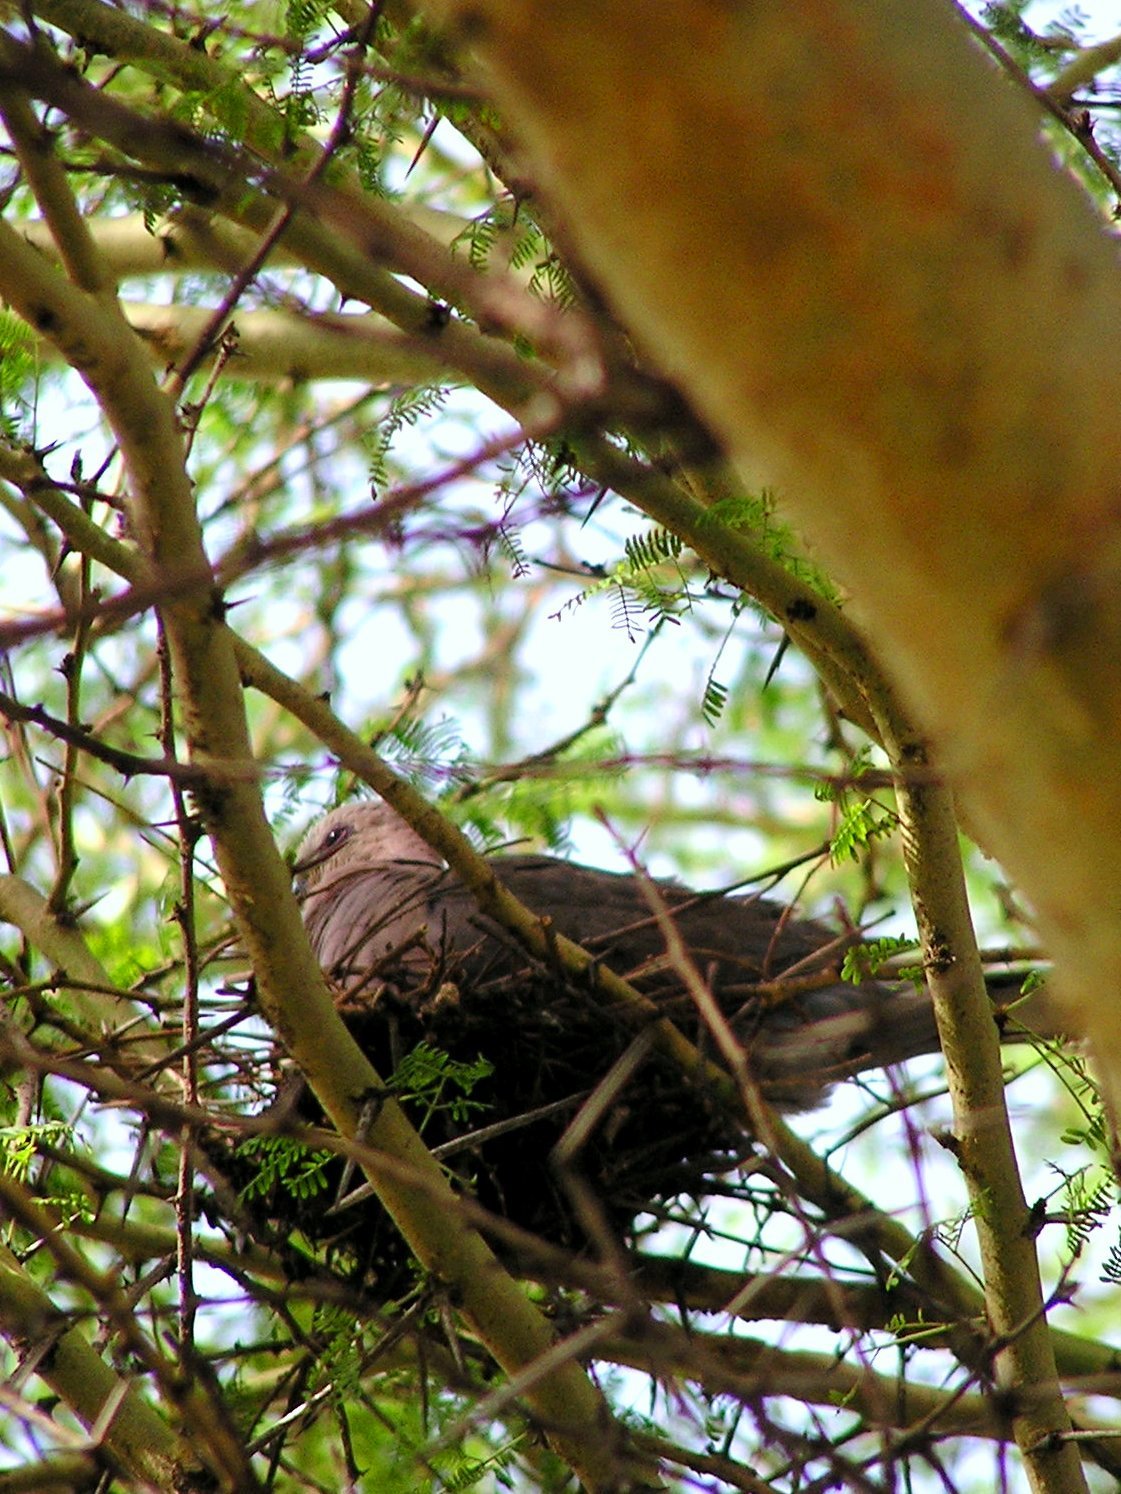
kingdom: Animalia
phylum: Chordata
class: Aves
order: Columbiformes
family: Columbidae
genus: Streptopelia
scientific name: Streptopelia semitorquata
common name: Red-eyed dove
